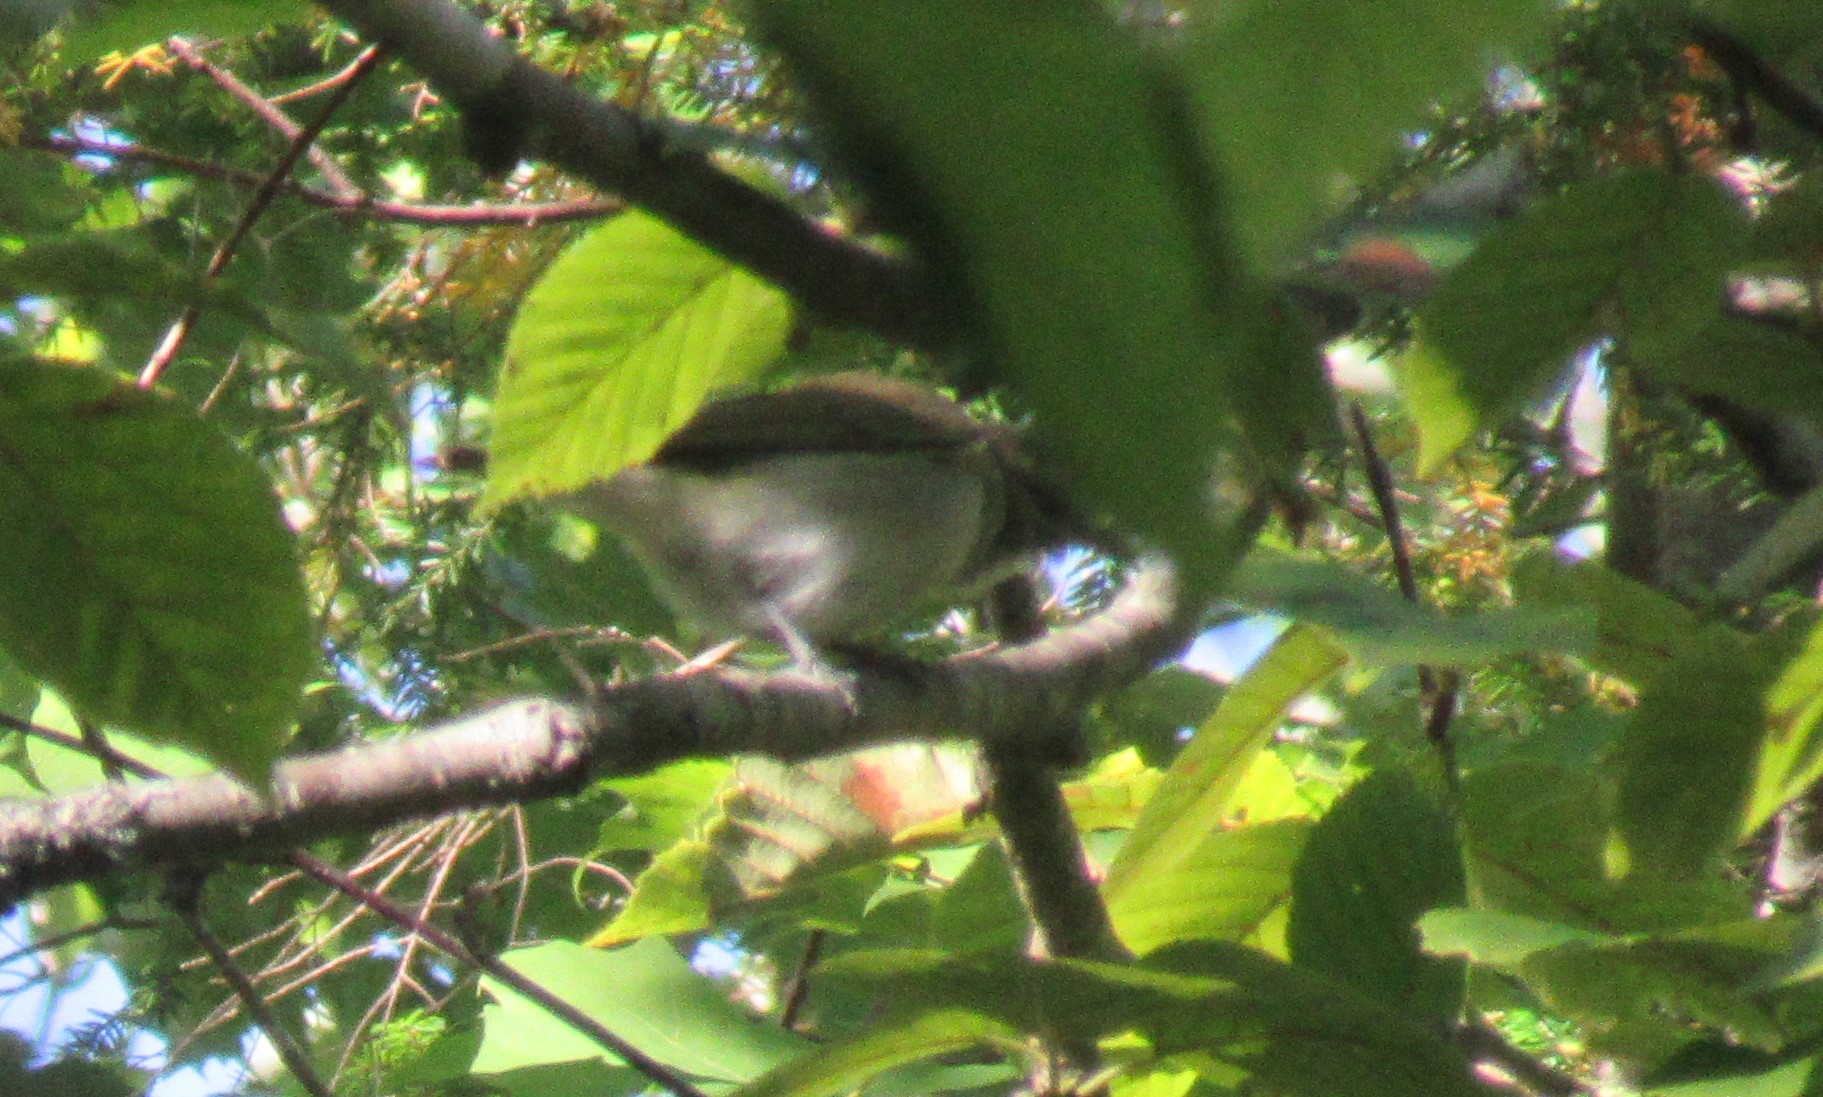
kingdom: Animalia
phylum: Chordata
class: Aves
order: Passeriformes
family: Vireonidae
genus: Vireo
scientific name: Vireo olivaceus
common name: Red-eyed vireo
